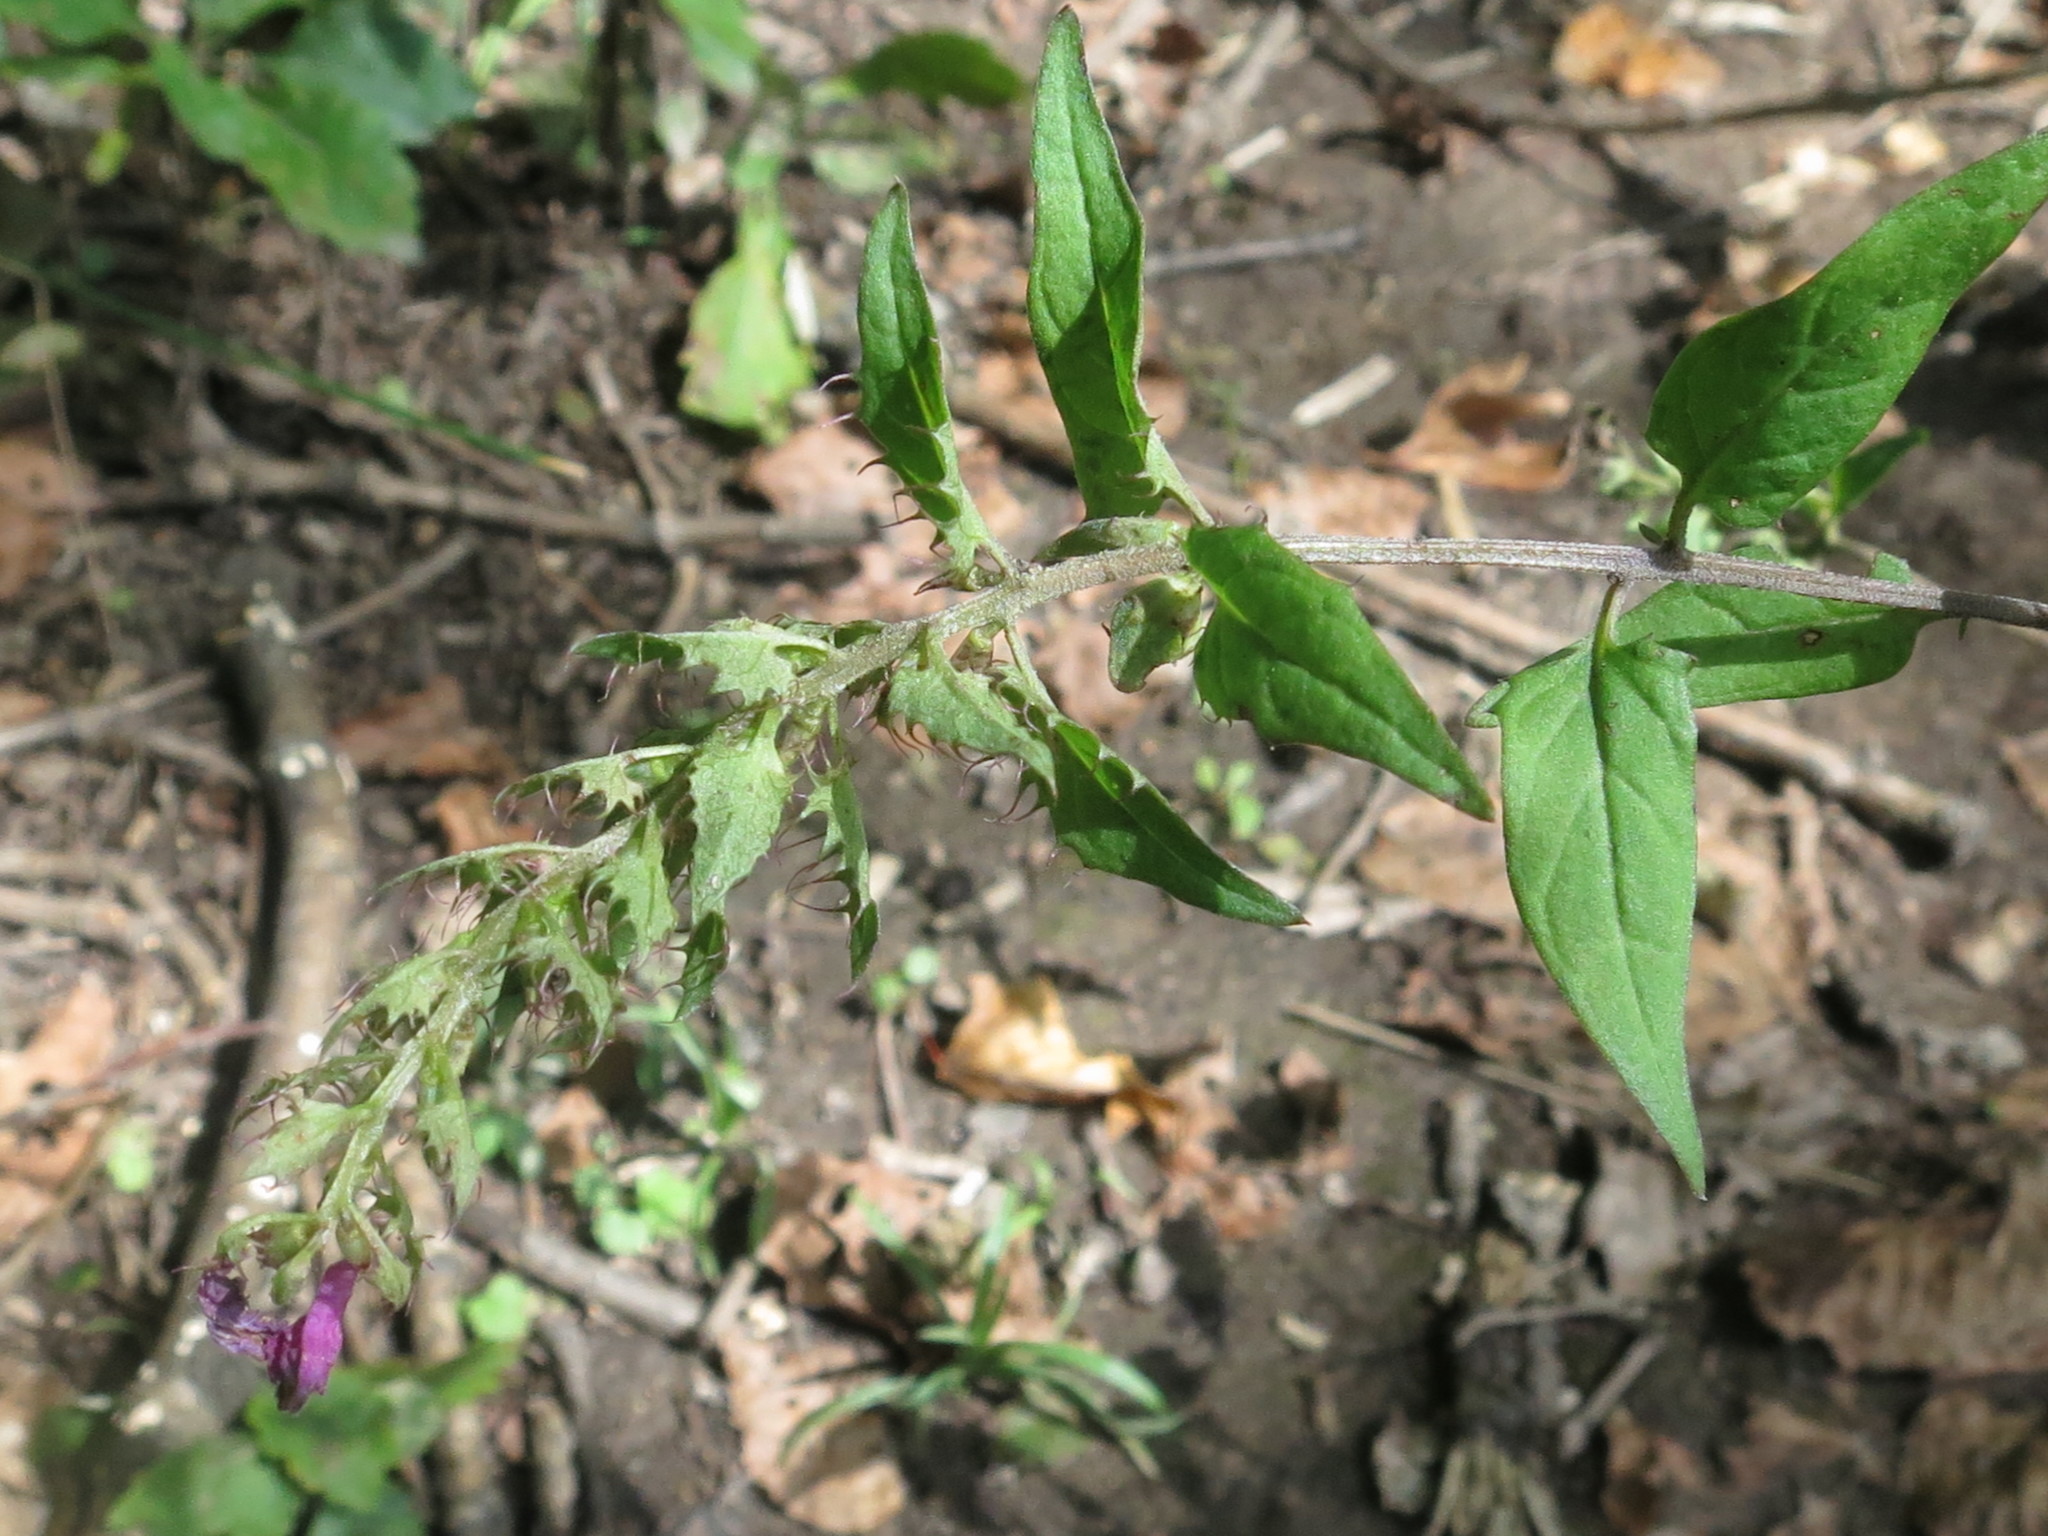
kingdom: Plantae
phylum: Tracheophyta
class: Magnoliopsida
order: Lamiales
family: Orobanchaceae
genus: Melampyrum
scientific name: Melampyrum roseum
